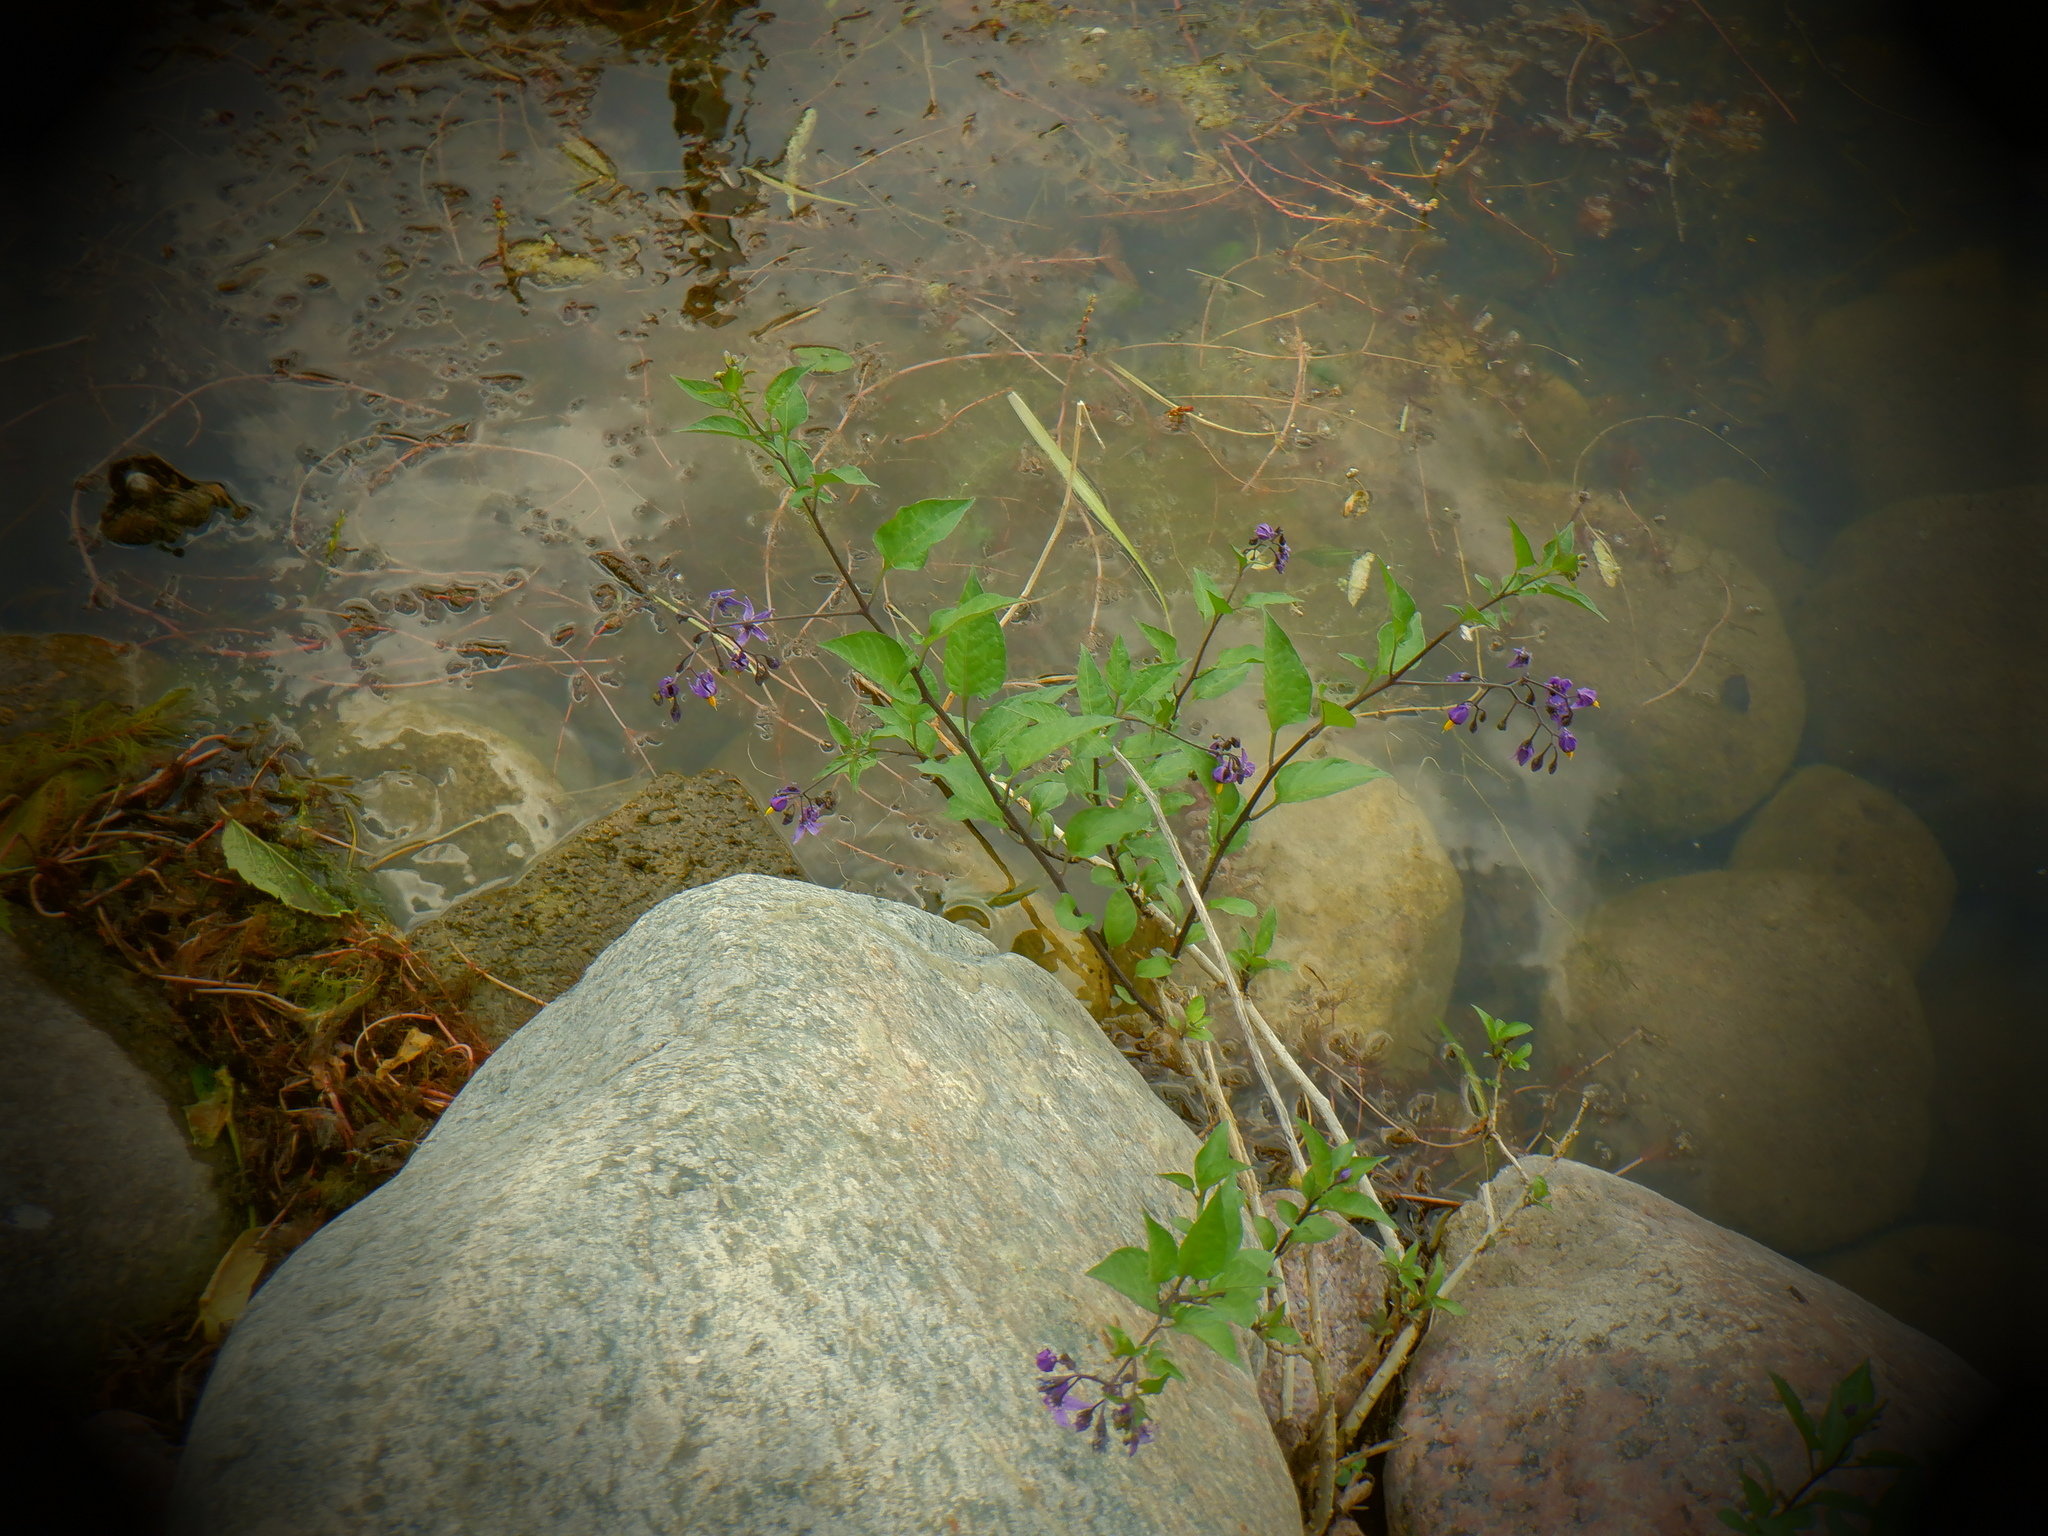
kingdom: Plantae
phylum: Tracheophyta
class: Magnoliopsida
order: Solanales
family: Solanaceae
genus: Solanum
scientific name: Solanum dulcamara
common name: Climbing nightshade
